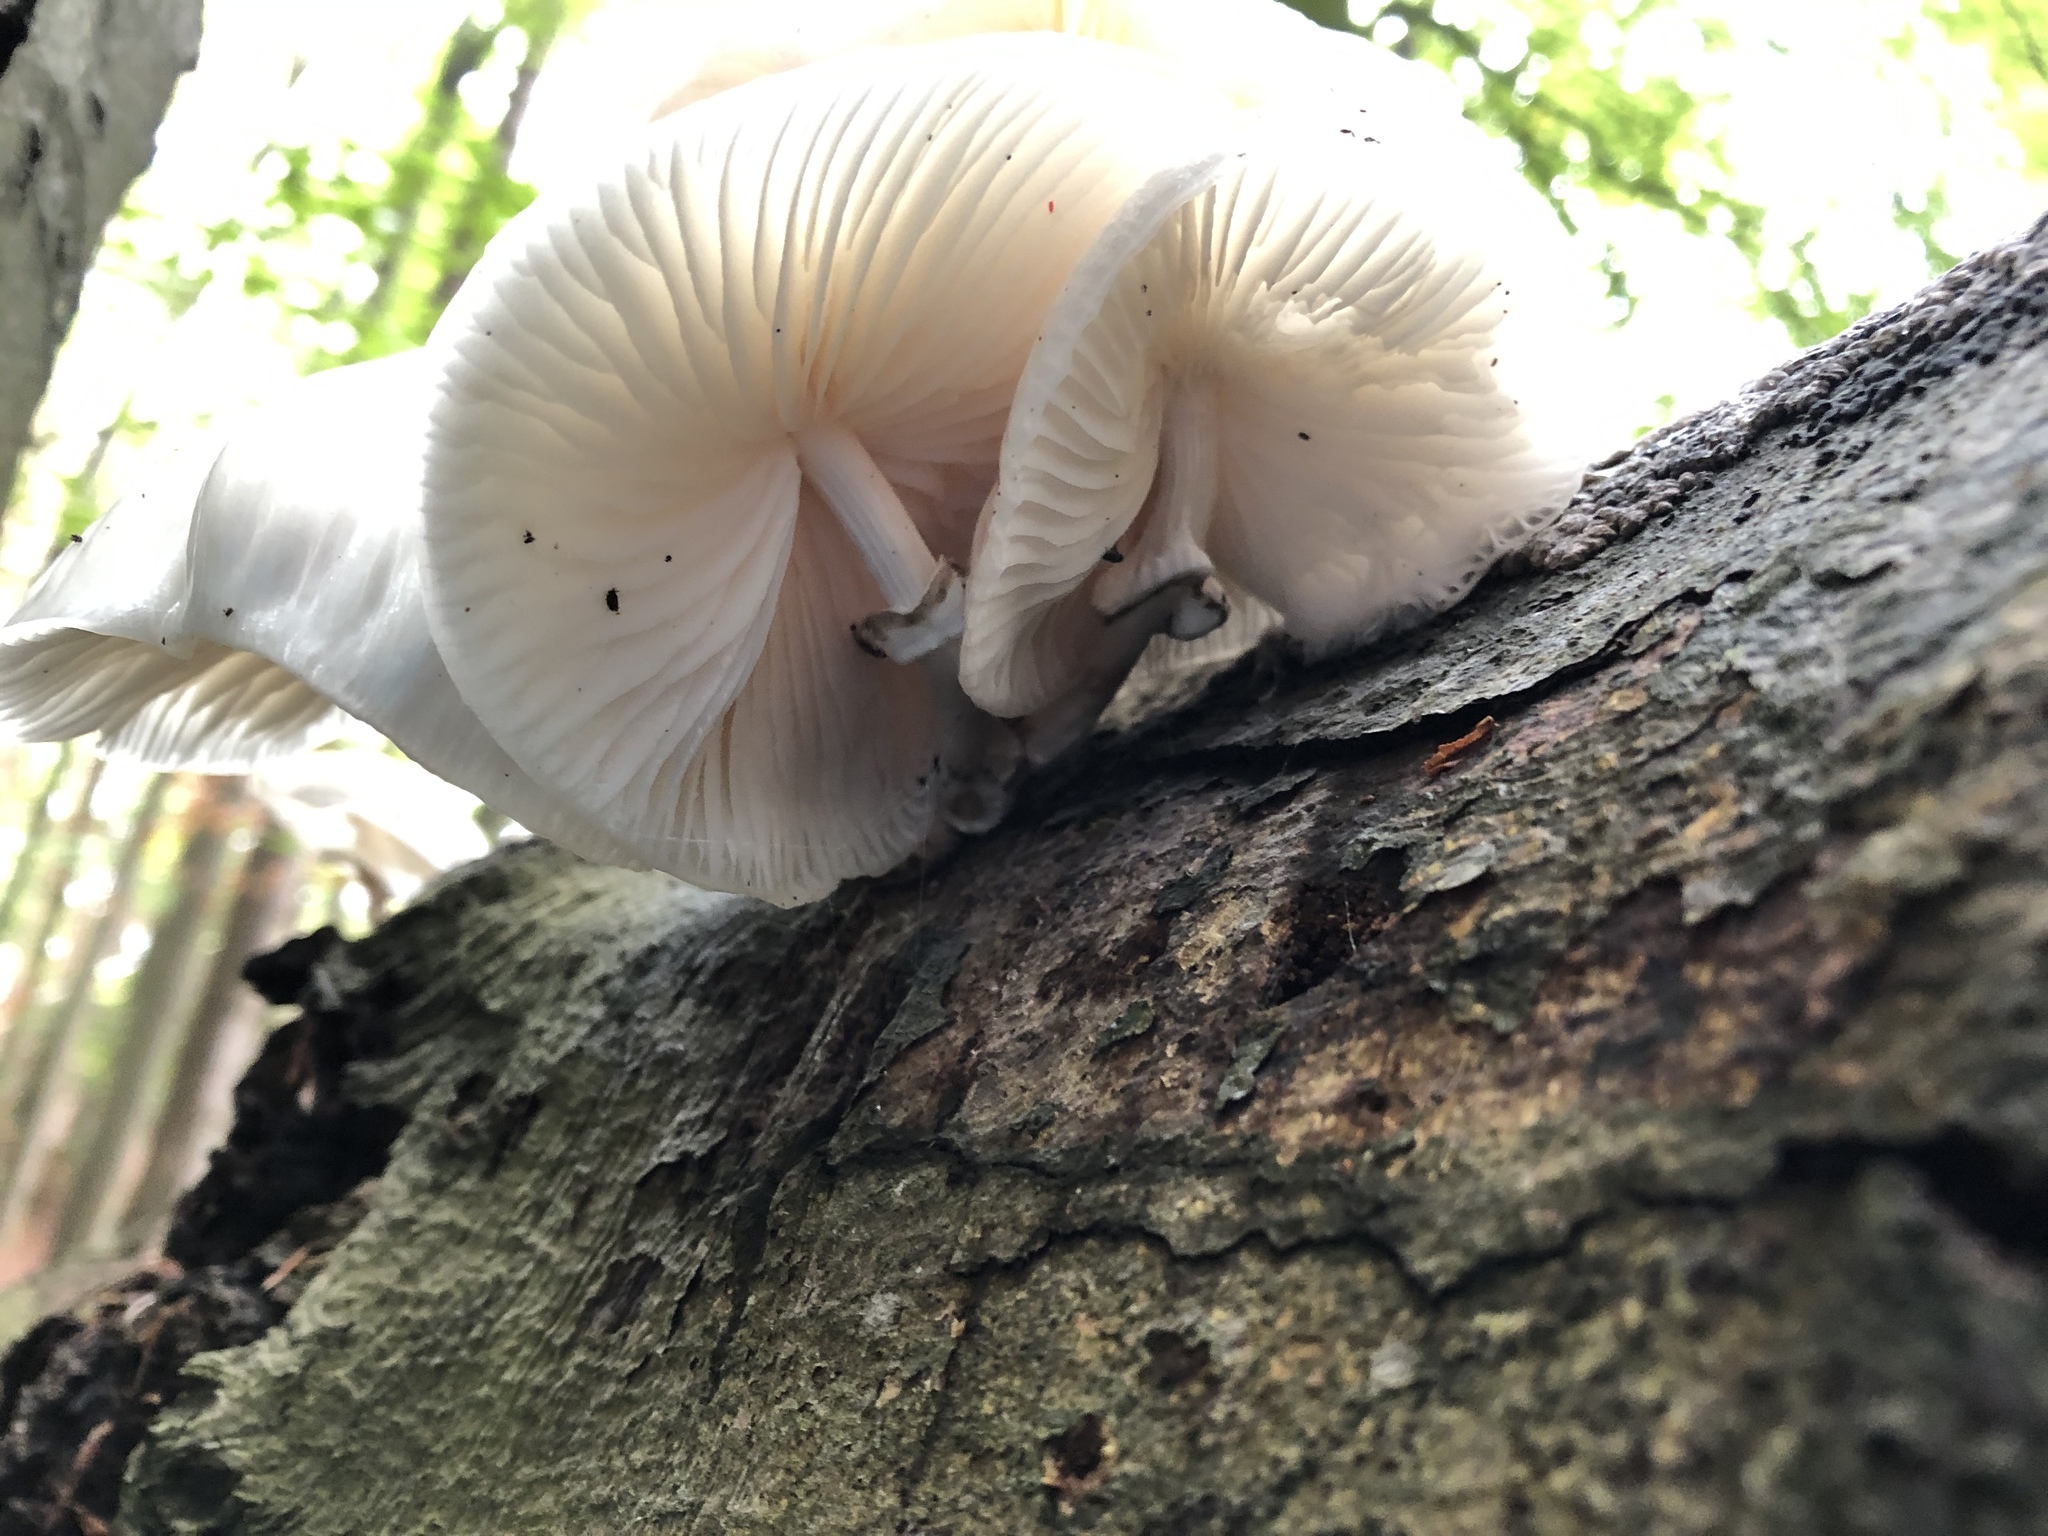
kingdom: Fungi
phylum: Basidiomycota
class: Agaricomycetes
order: Agaricales
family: Physalacriaceae
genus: Mucidula
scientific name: Mucidula mucida
